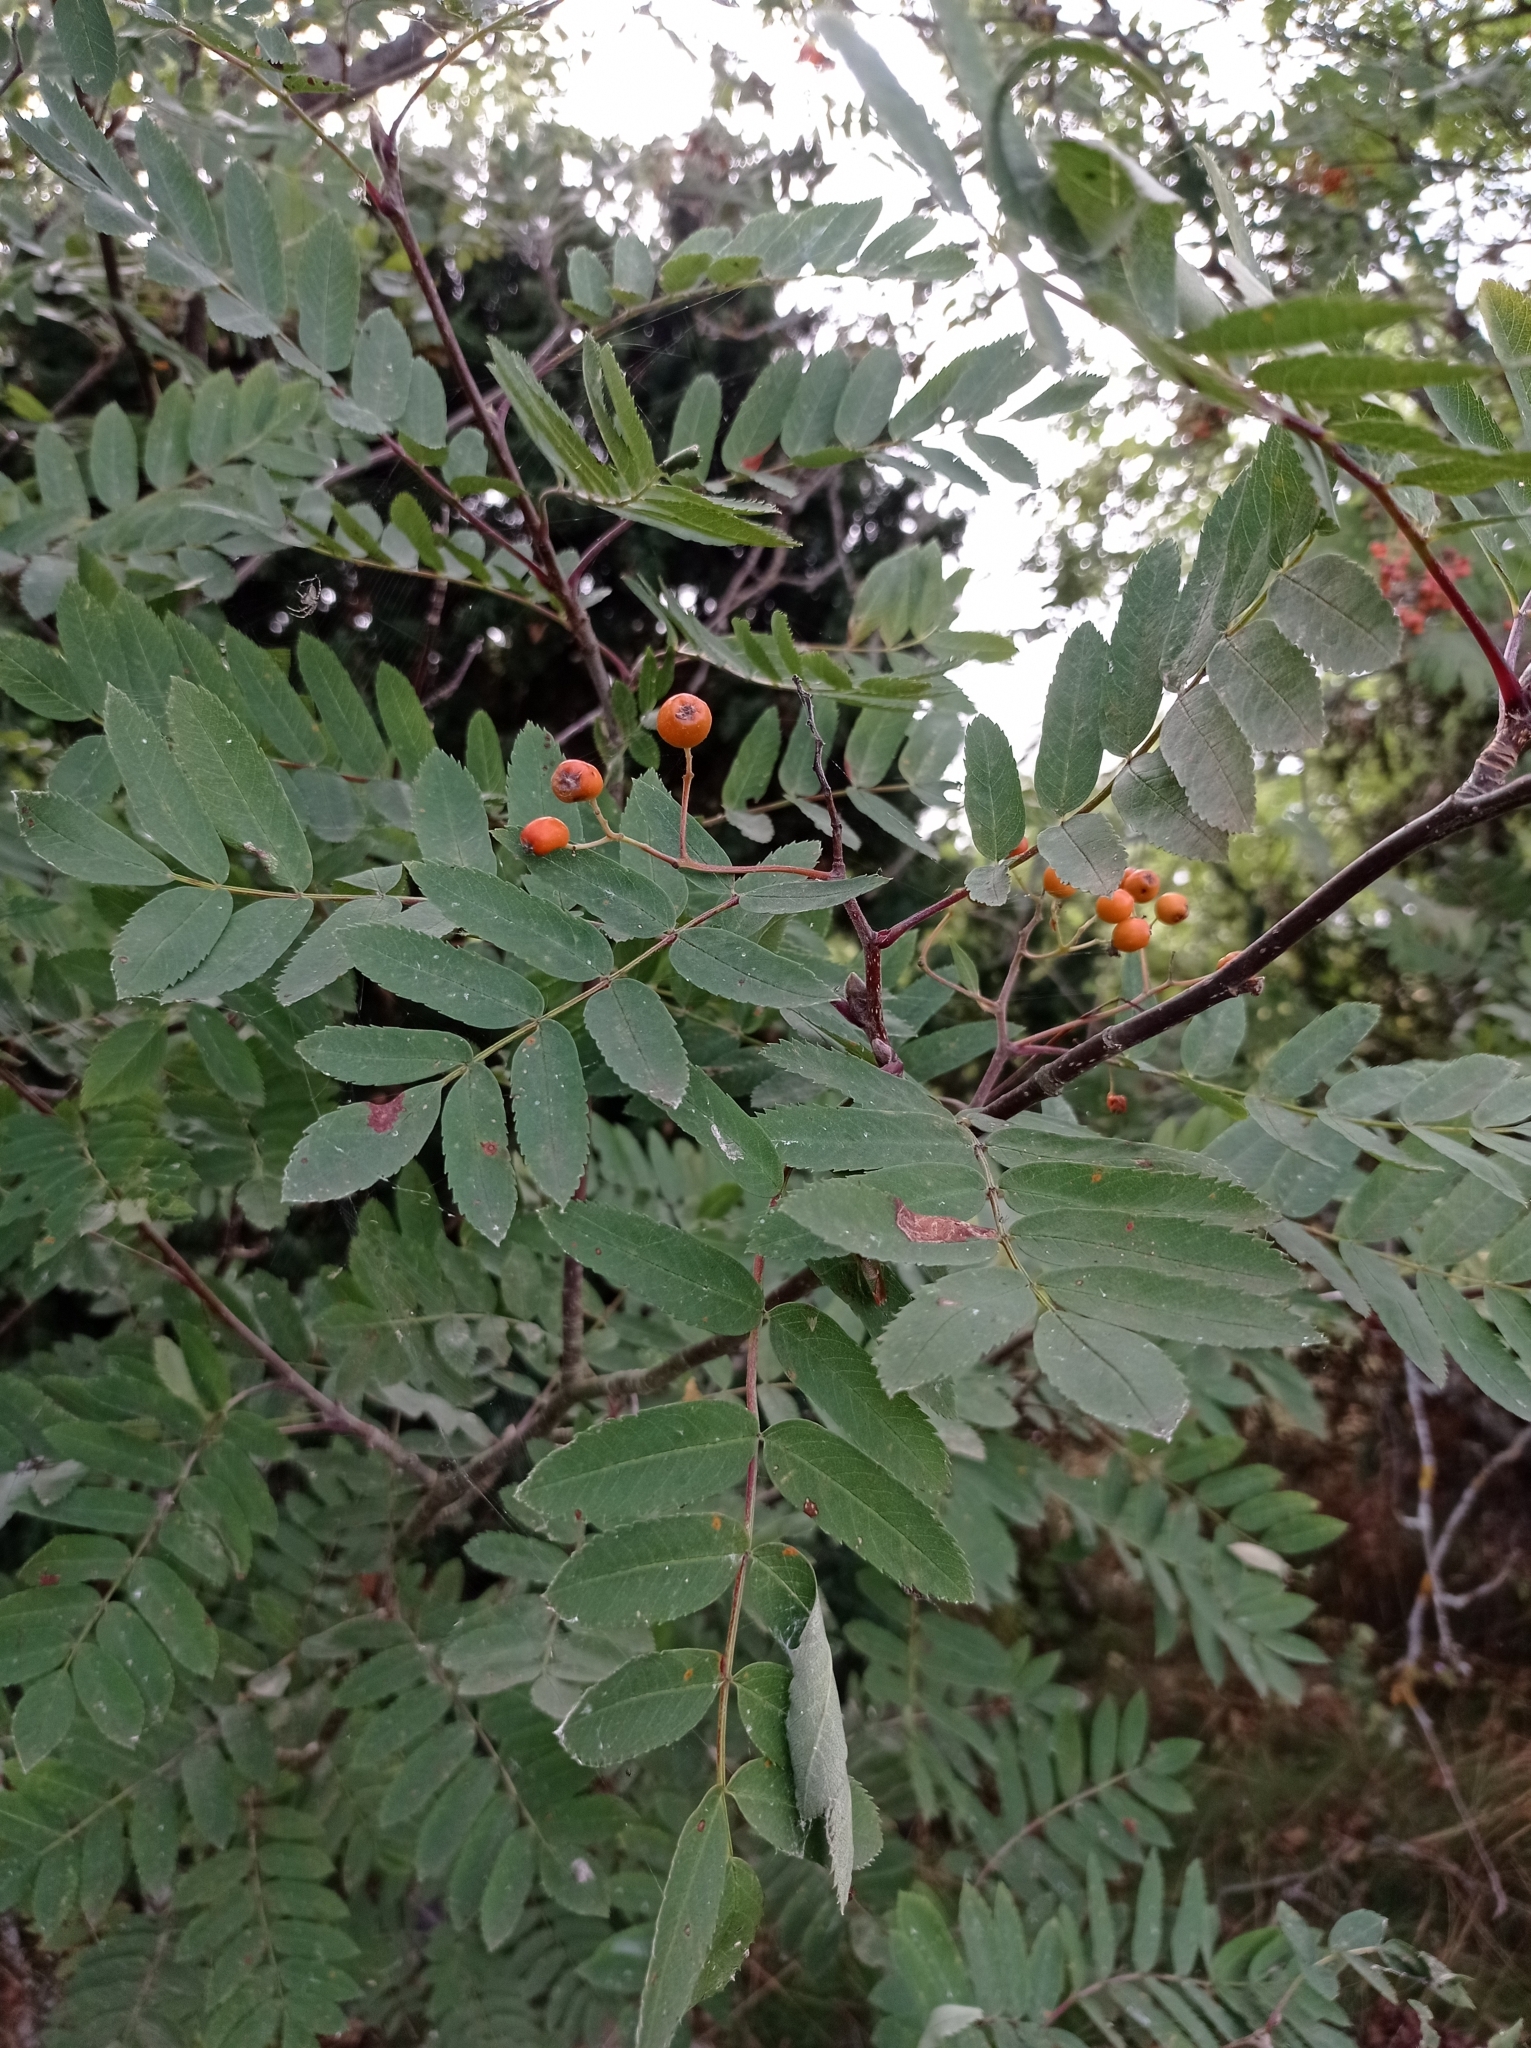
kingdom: Plantae
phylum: Tracheophyta
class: Magnoliopsida
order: Rosales
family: Rosaceae
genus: Sorbus
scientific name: Sorbus aucuparia
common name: Rowan
